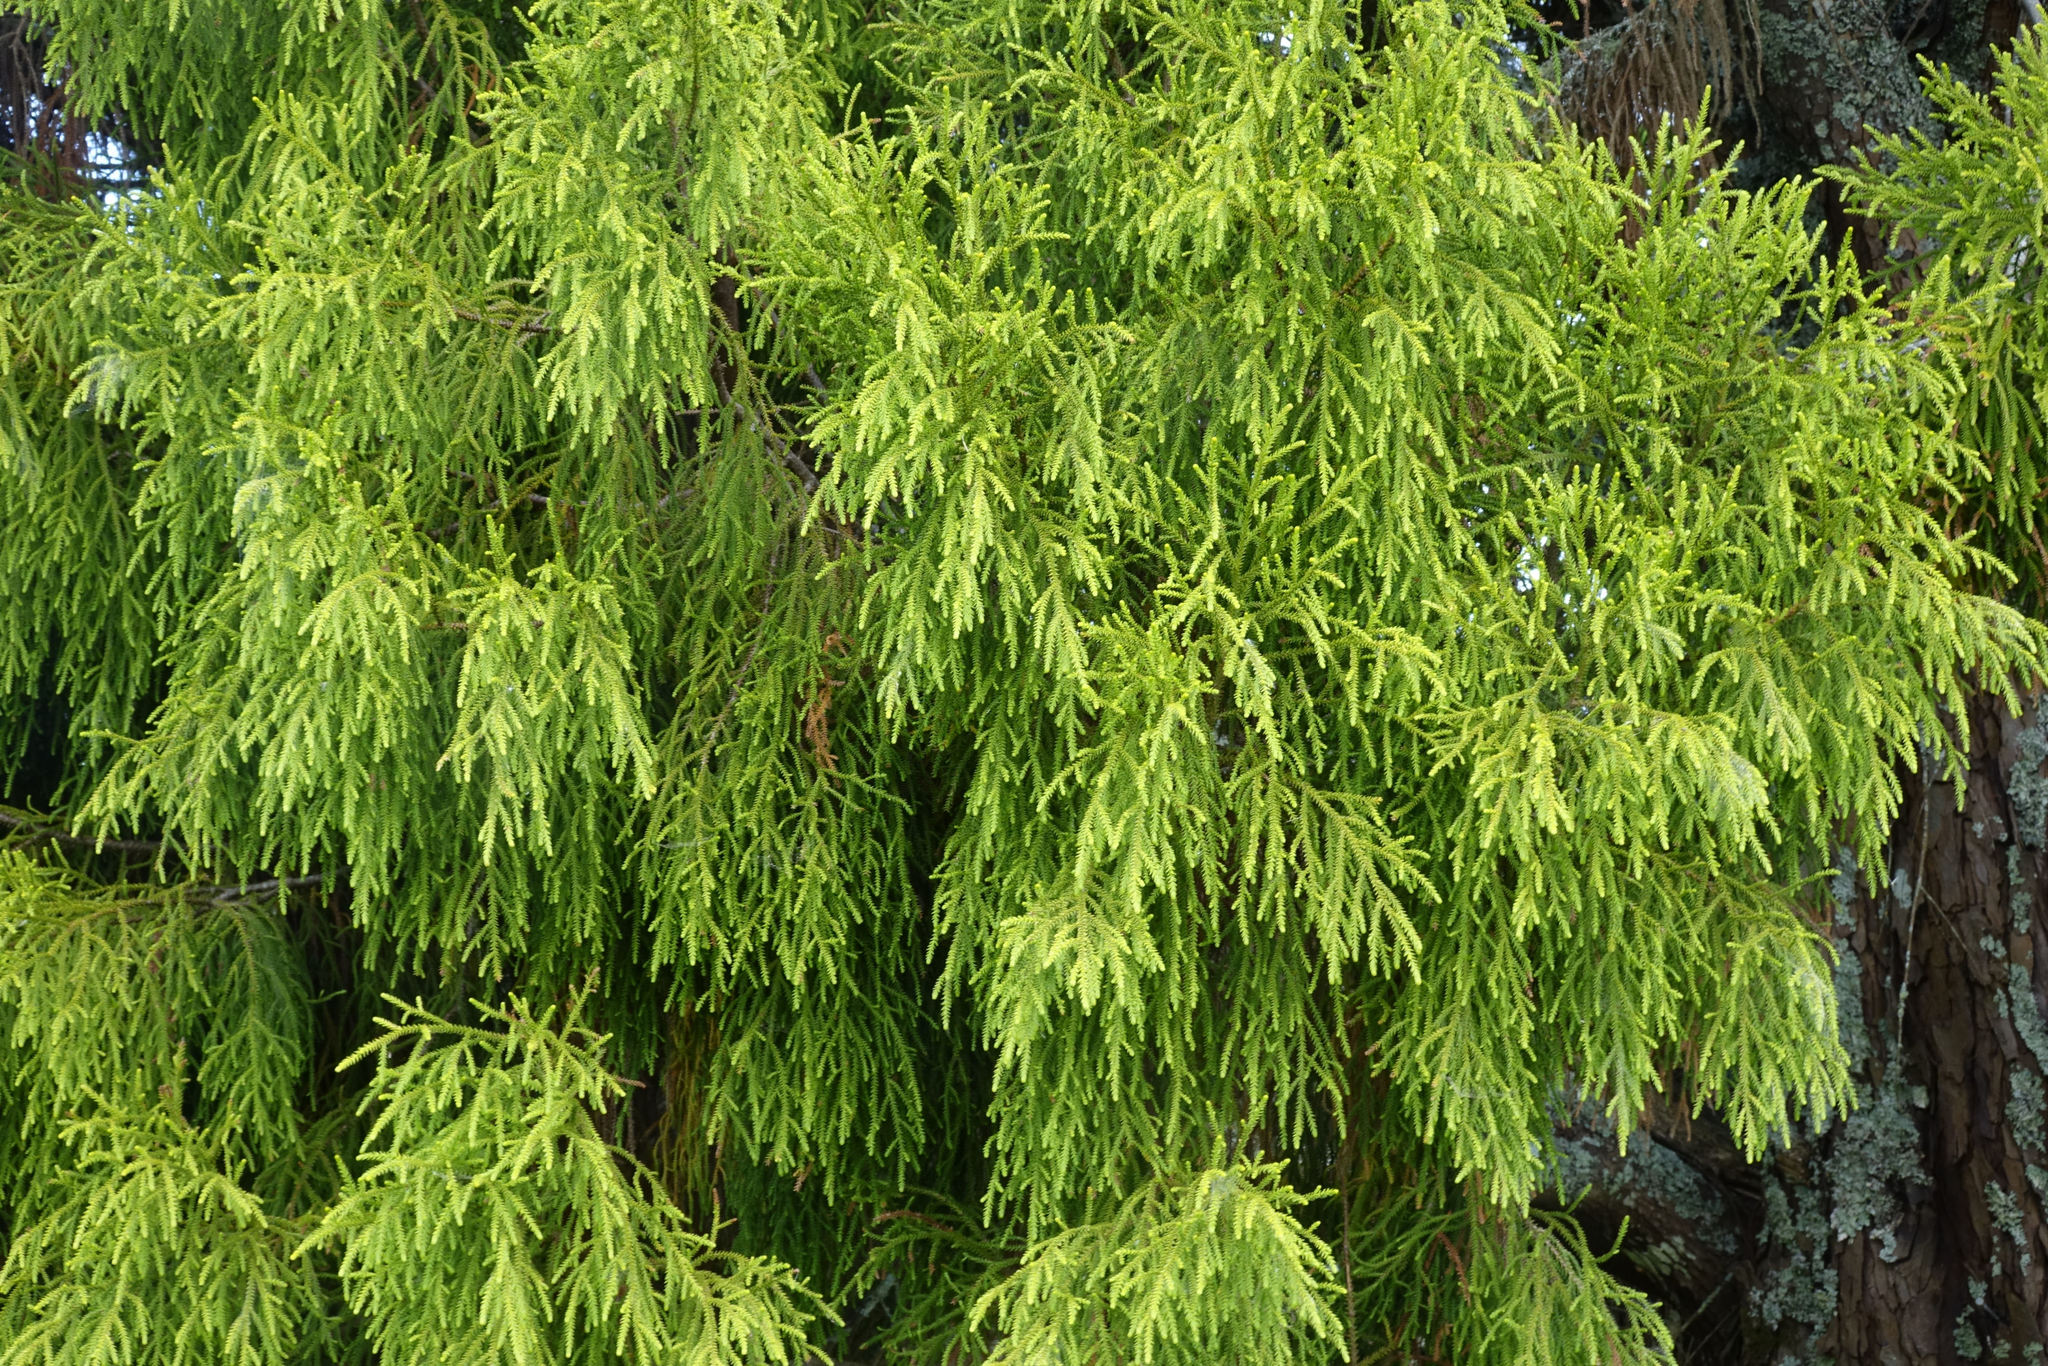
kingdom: Plantae
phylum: Tracheophyta
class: Pinopsida
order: Pinales
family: Podocarpaceae
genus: Dacrydium
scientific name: Dacrydium cupressinum
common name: Red pine
